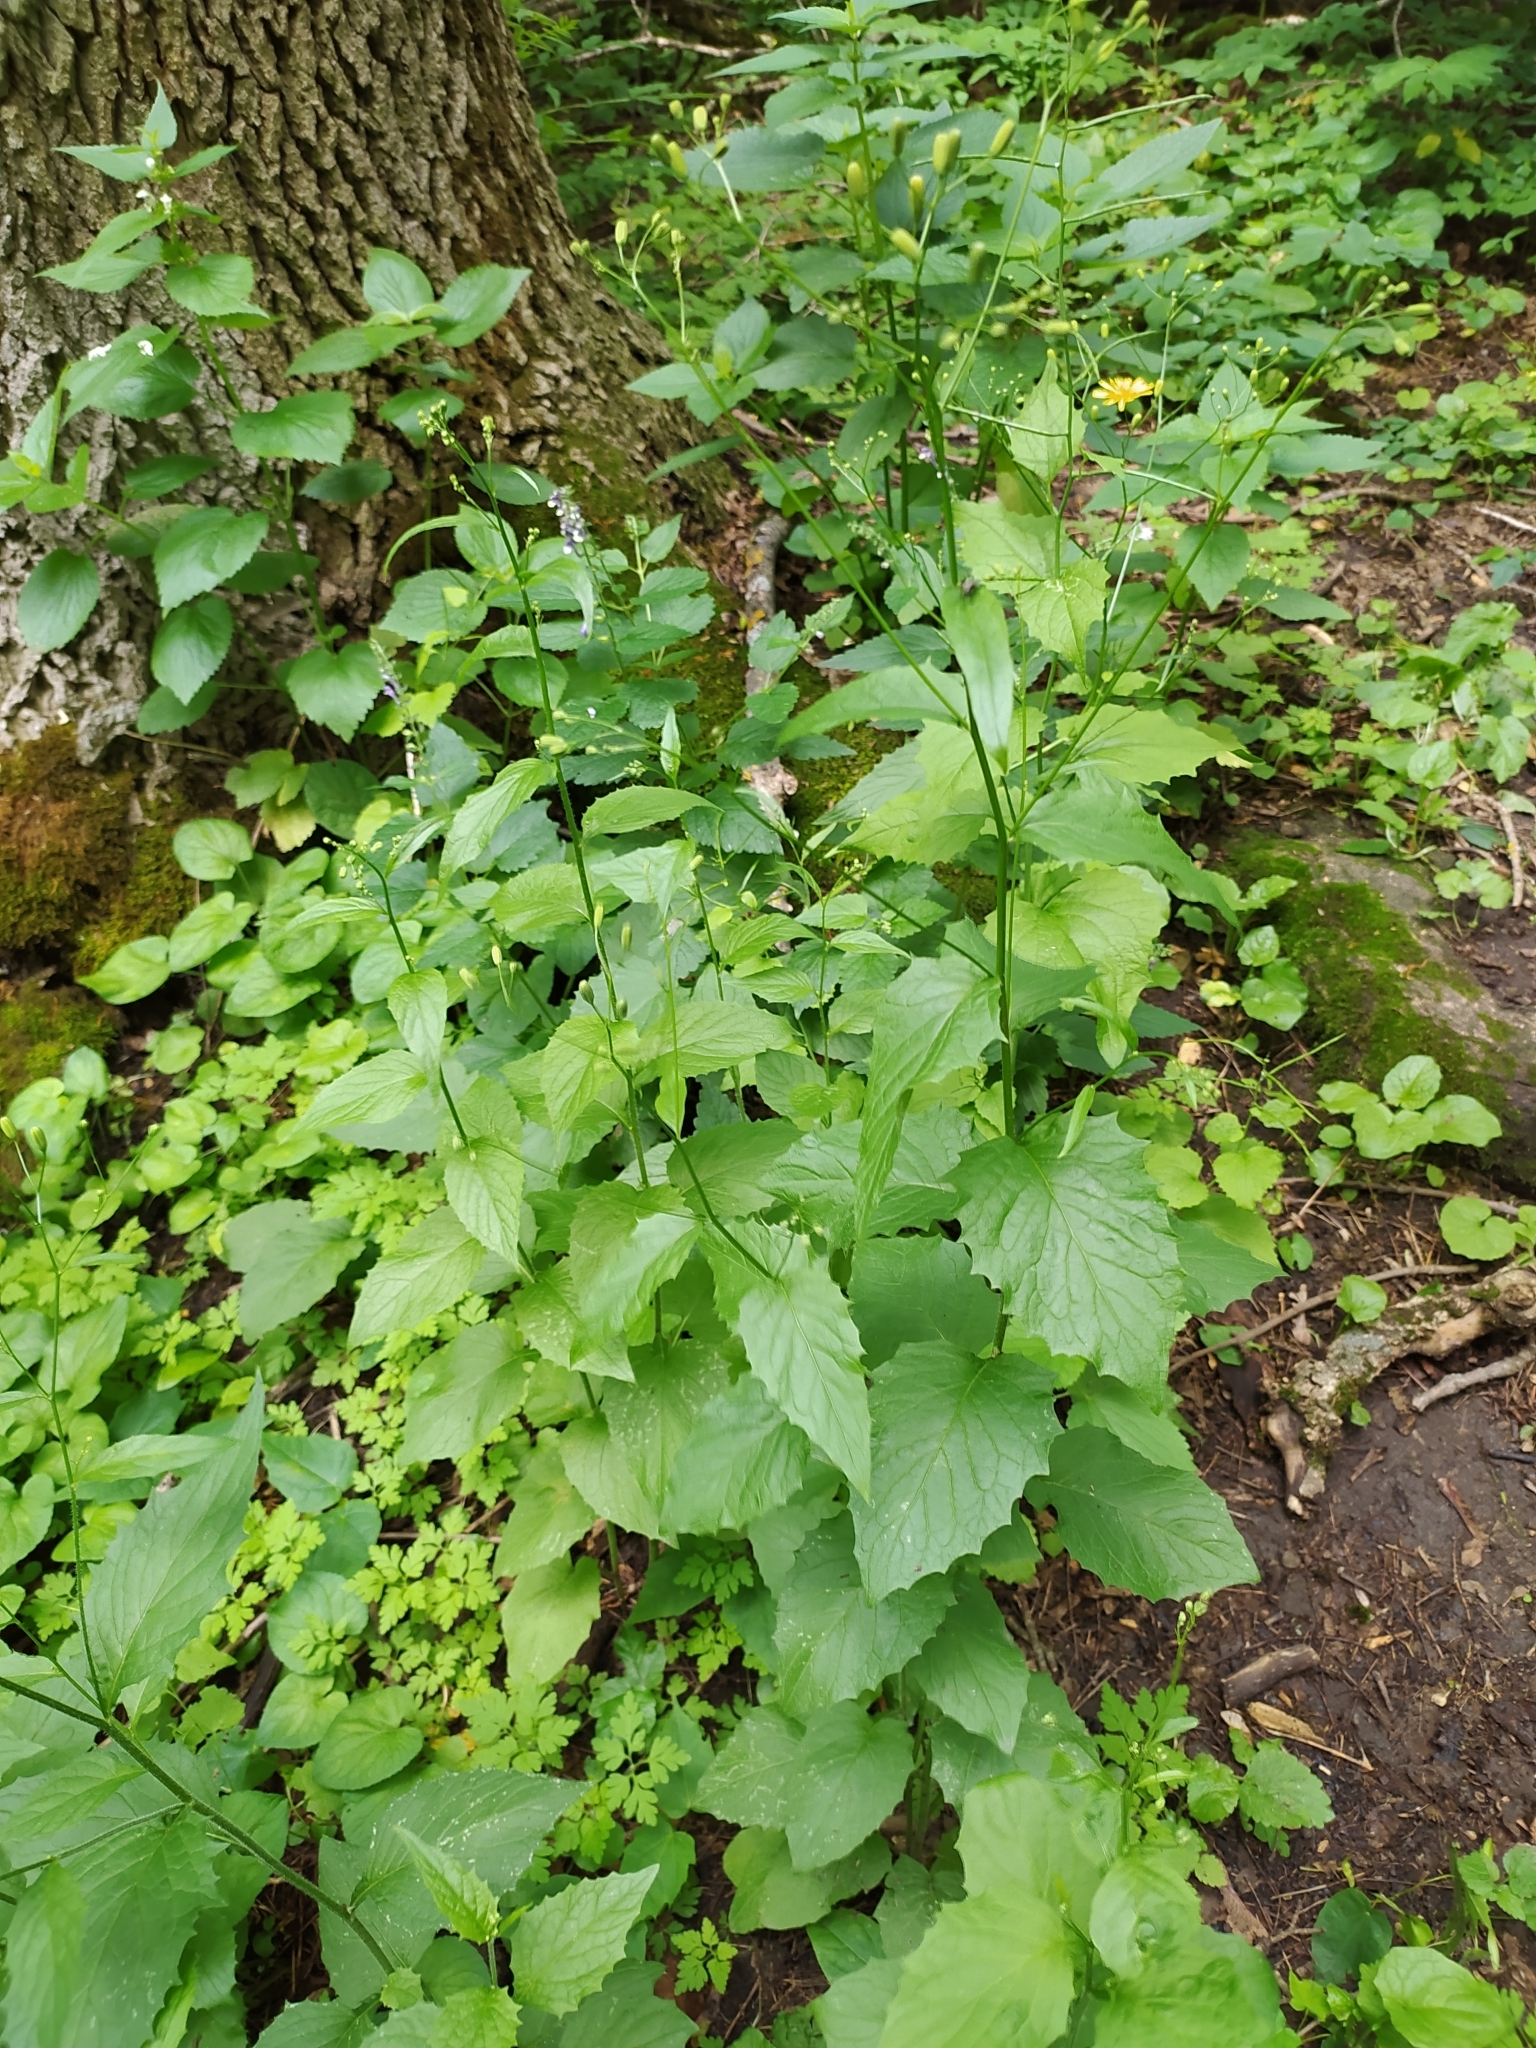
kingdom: Plantae
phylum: Tracheophyta
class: Magnoliopsida
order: Asterales
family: Asteraceae
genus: Lapsana
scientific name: Lapsana communis
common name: Nipplewort
